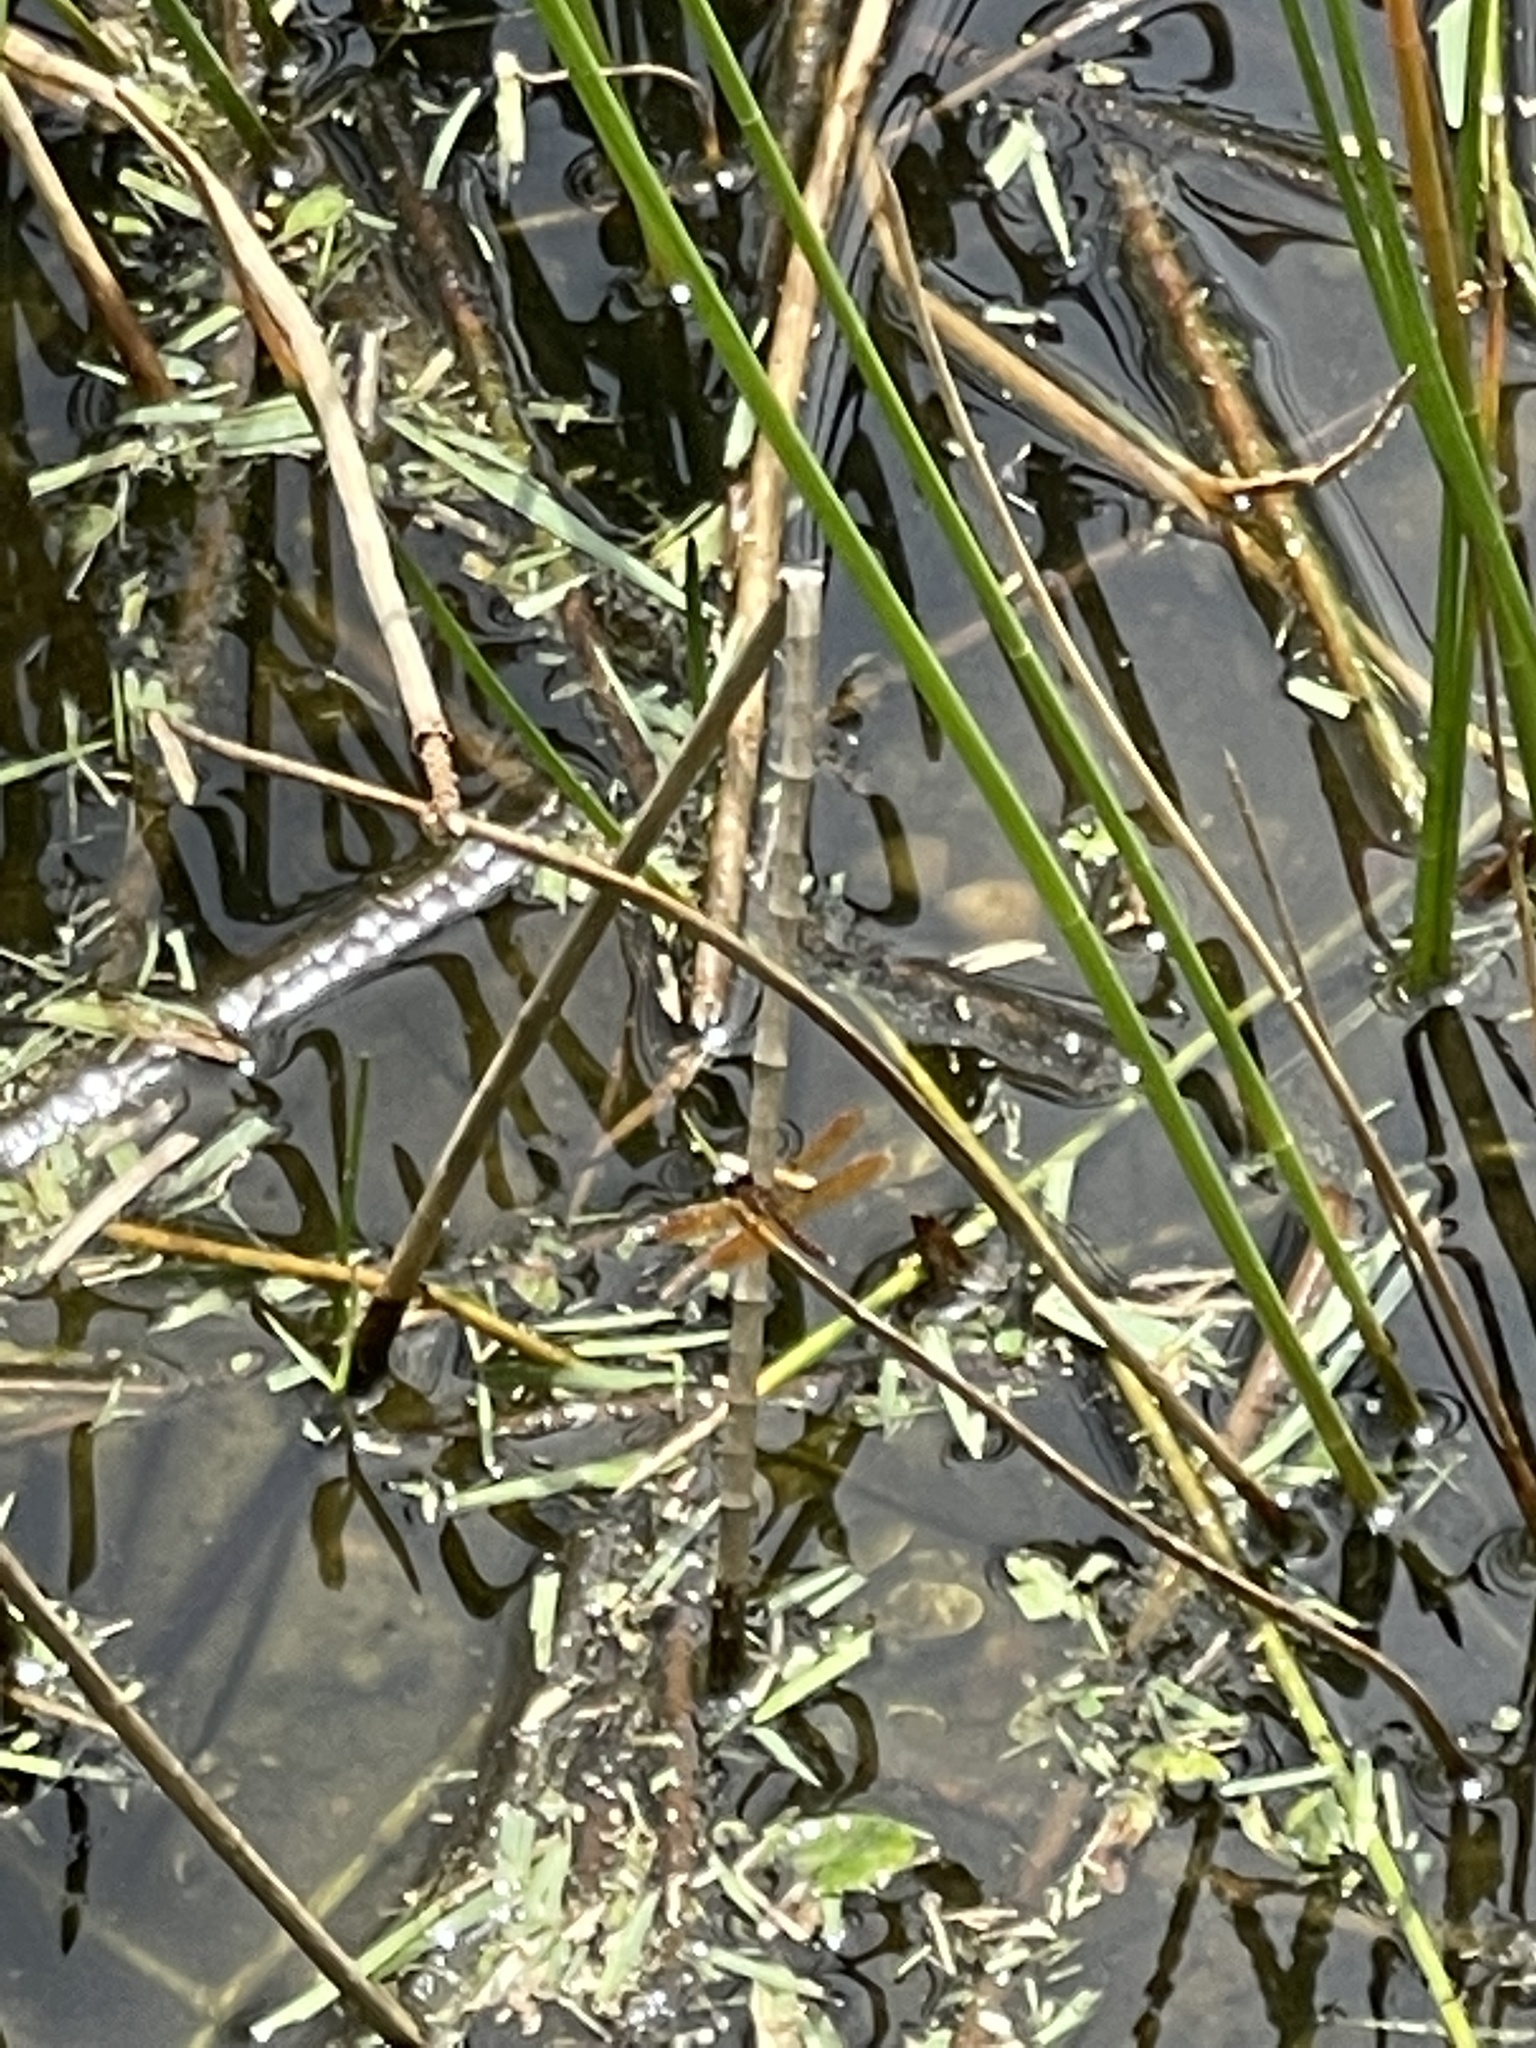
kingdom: Animalia
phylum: Arthropoda
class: Insecta
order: Odonata
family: Libellulidae
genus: Perithemis
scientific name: Perithemis tenera
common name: Eastern amberwing
